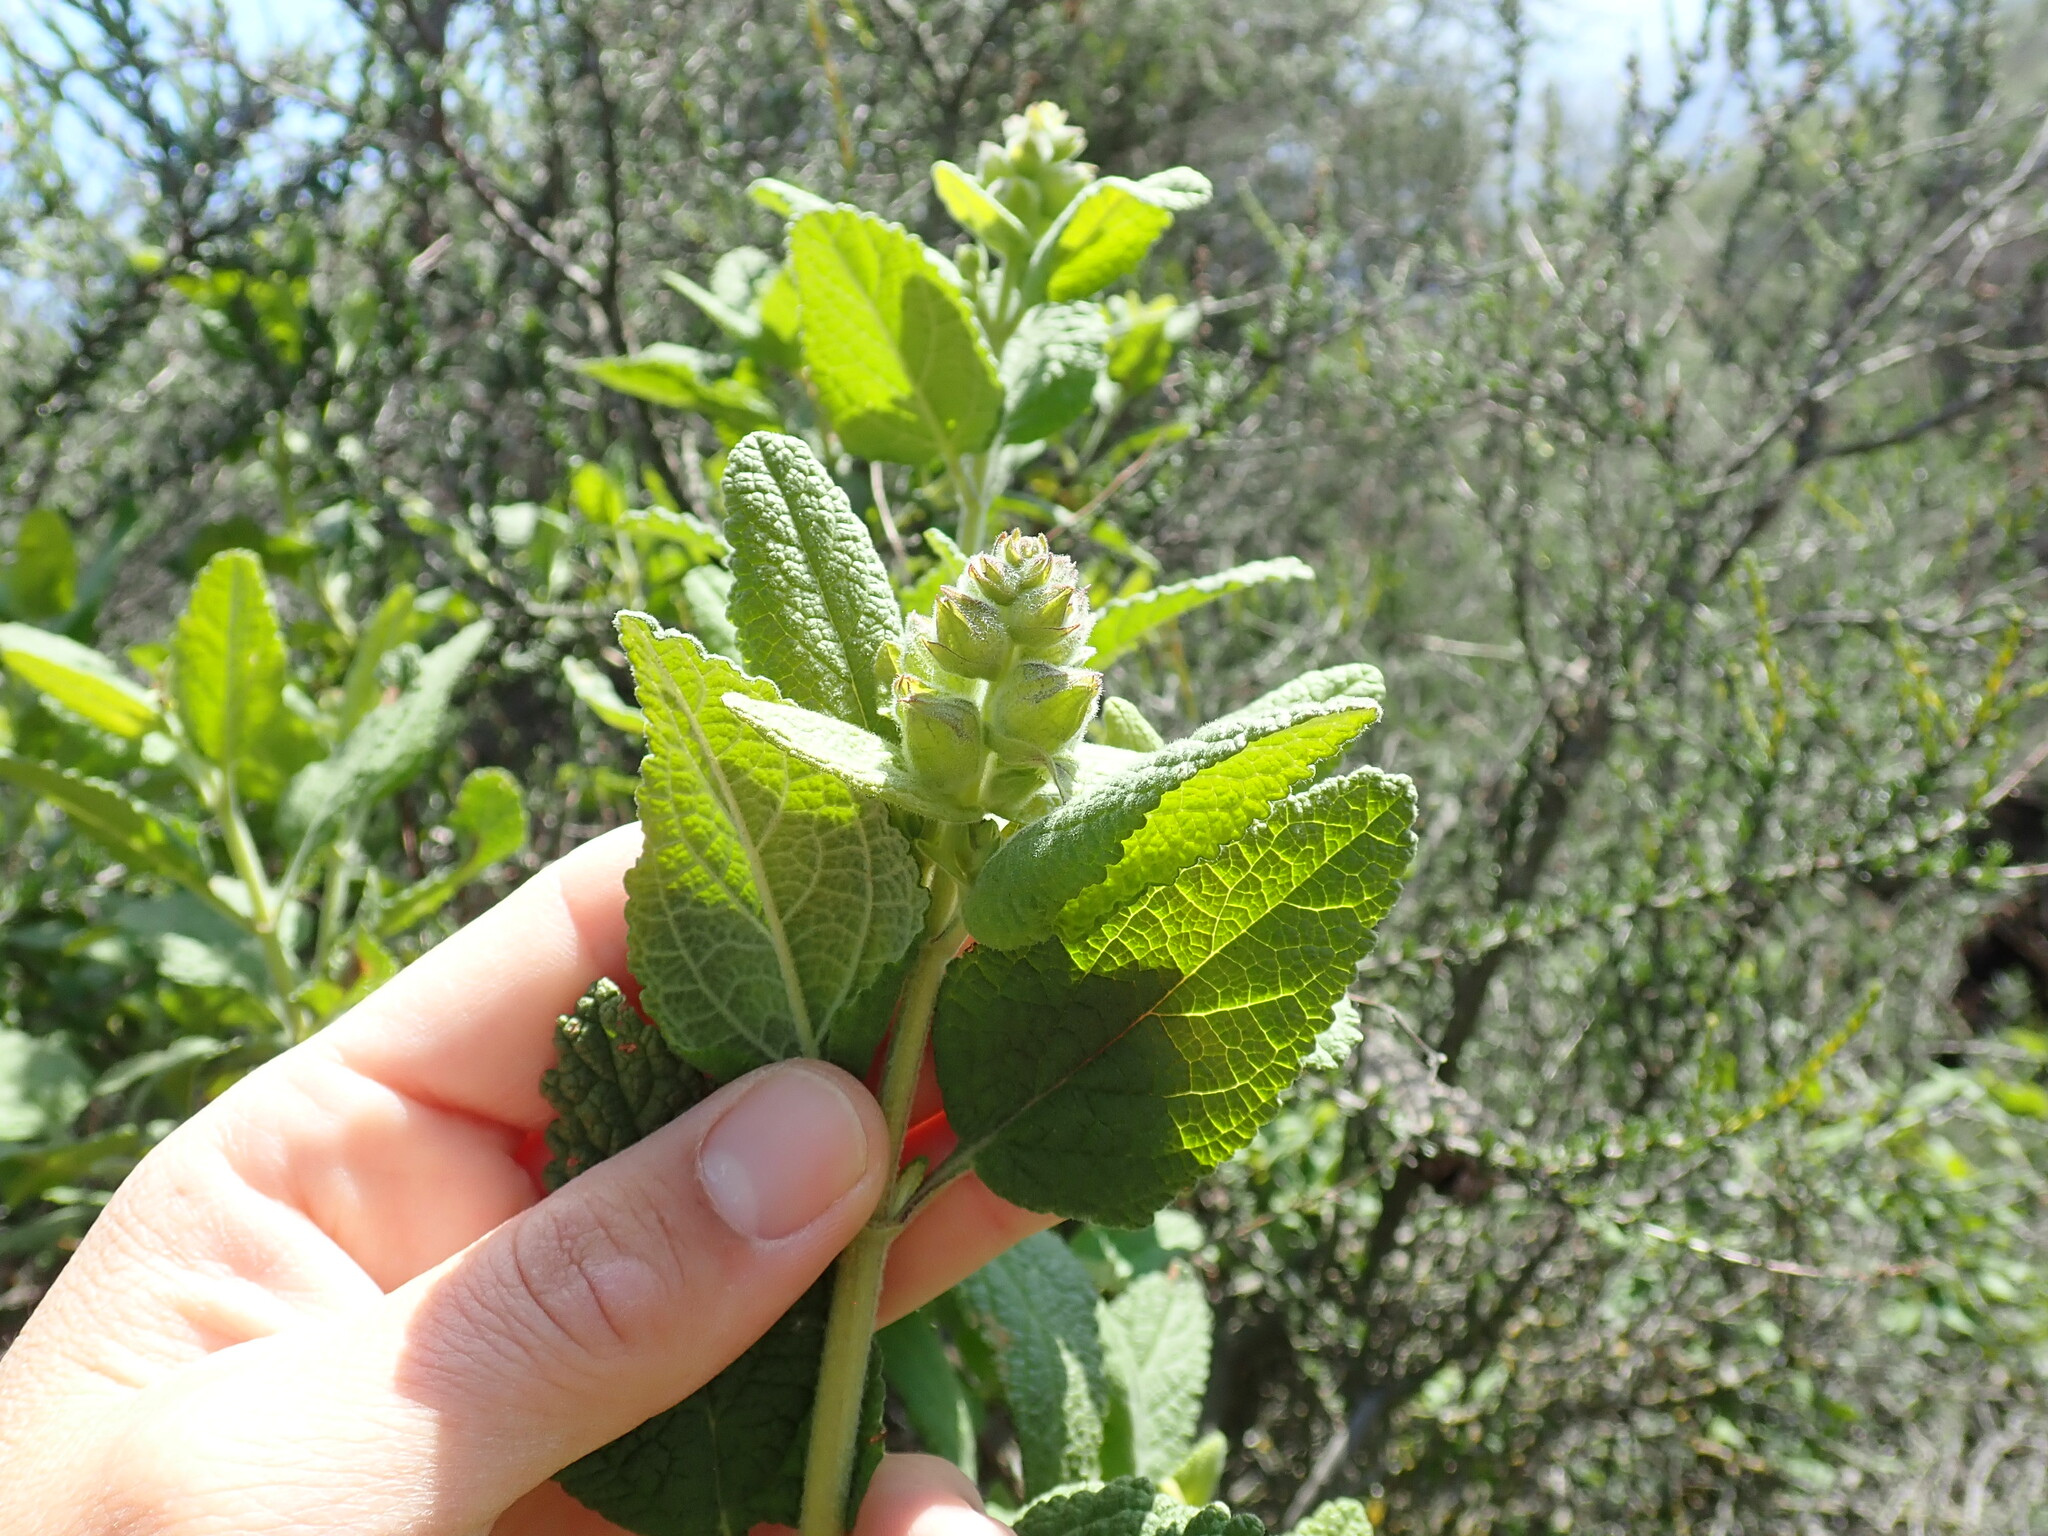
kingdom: Plantae
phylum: Tracheophyta
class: Magnoliopsida
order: Lamiales
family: Lamiaceae
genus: Lepechinia
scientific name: Lepechinia calycina
